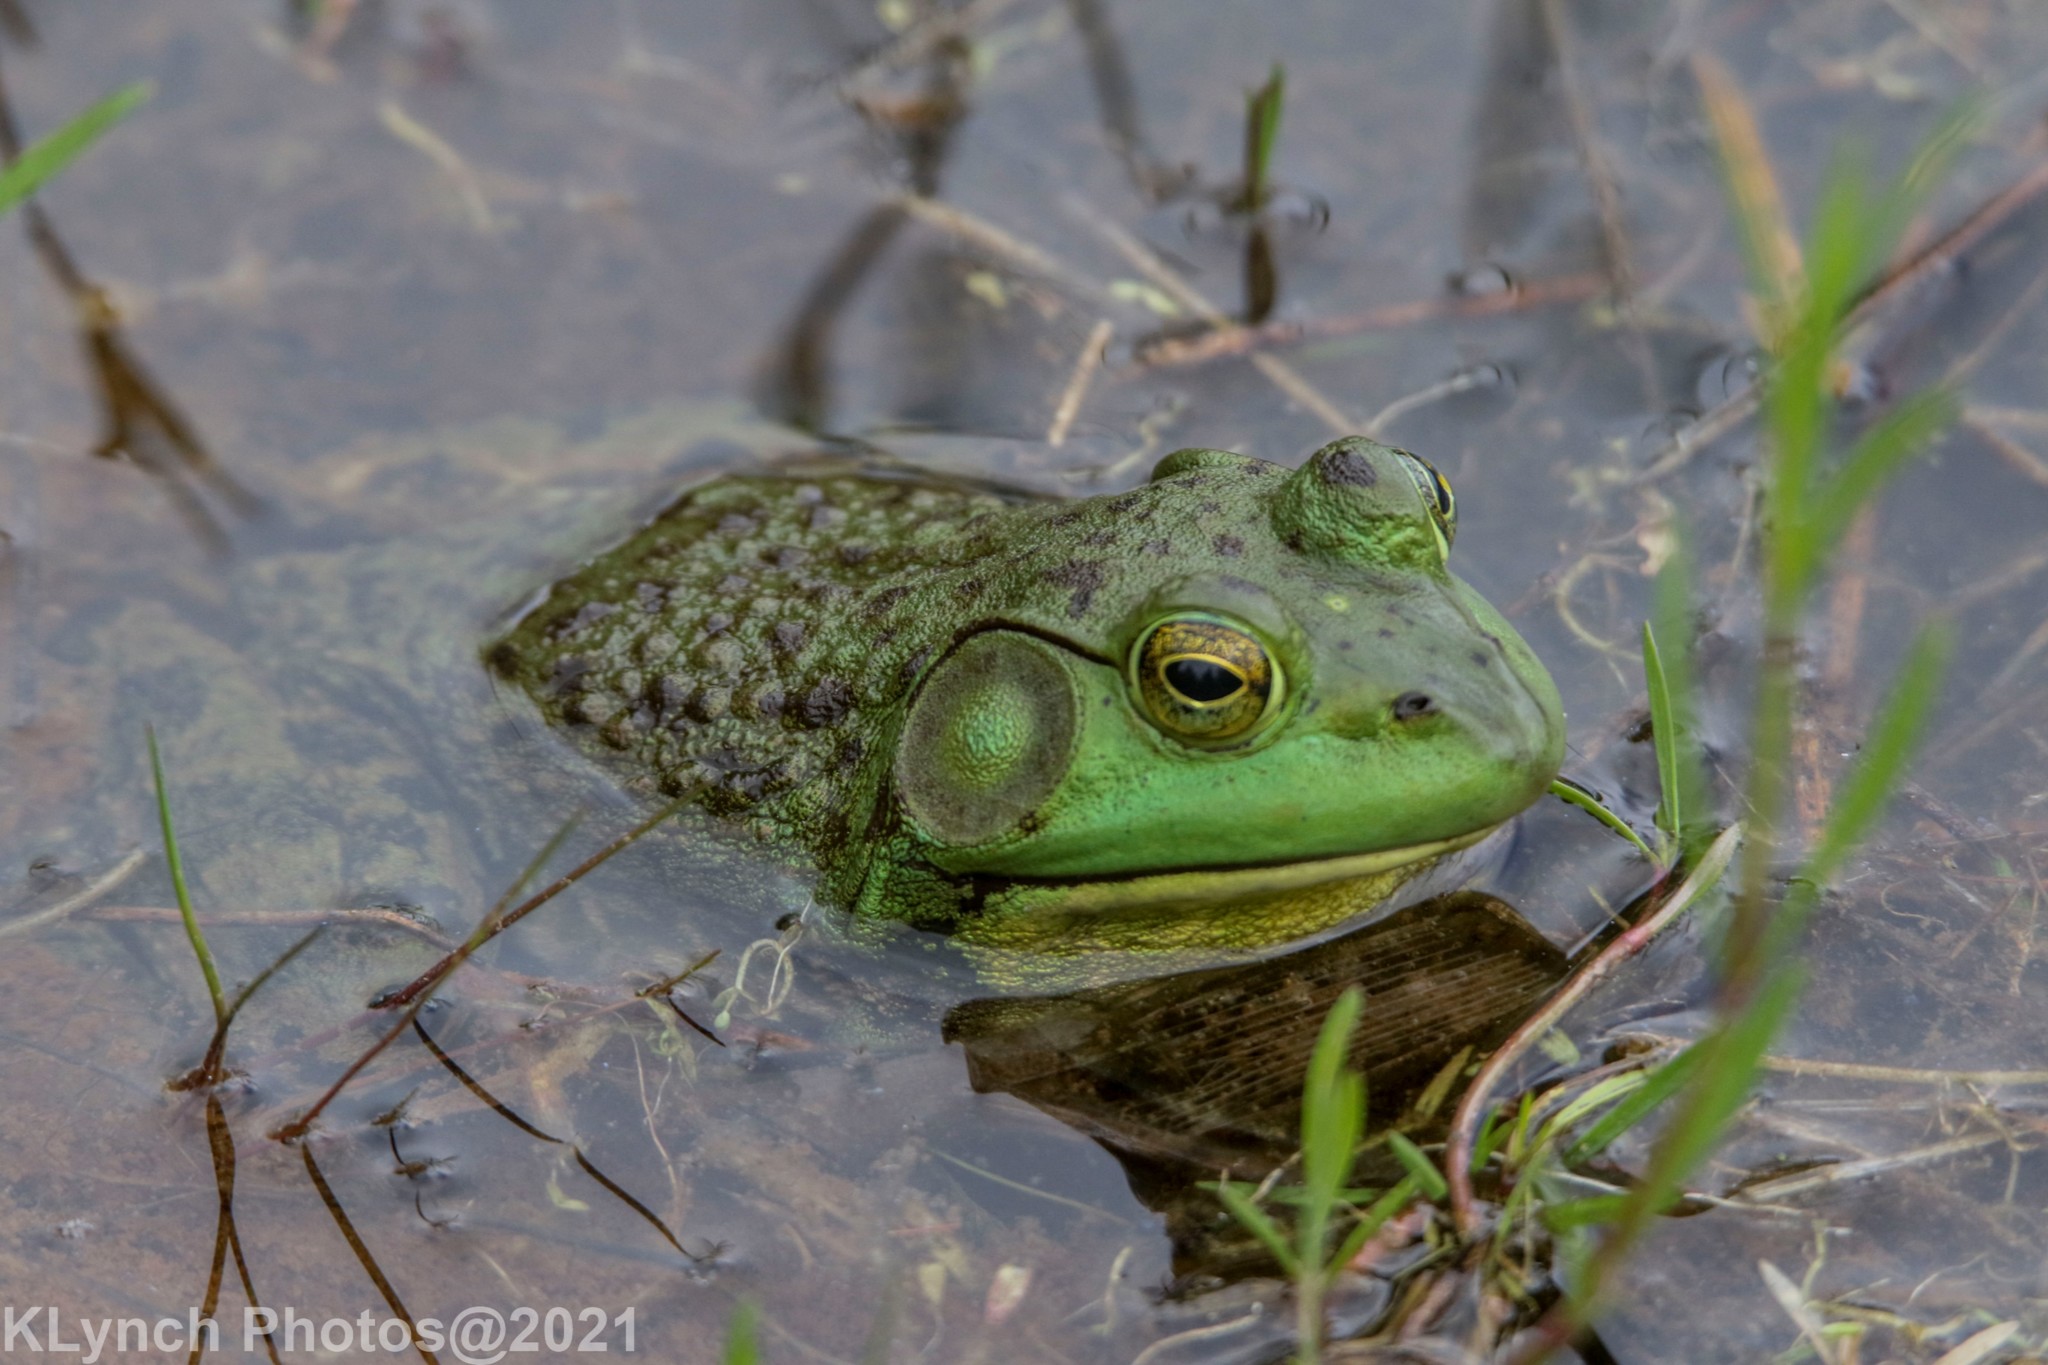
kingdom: Animalia
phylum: Chordata
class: Amphibia
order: Anura
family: Ranidae
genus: Lithobates
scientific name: Lithobates catesbeianus
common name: American bullfrog
